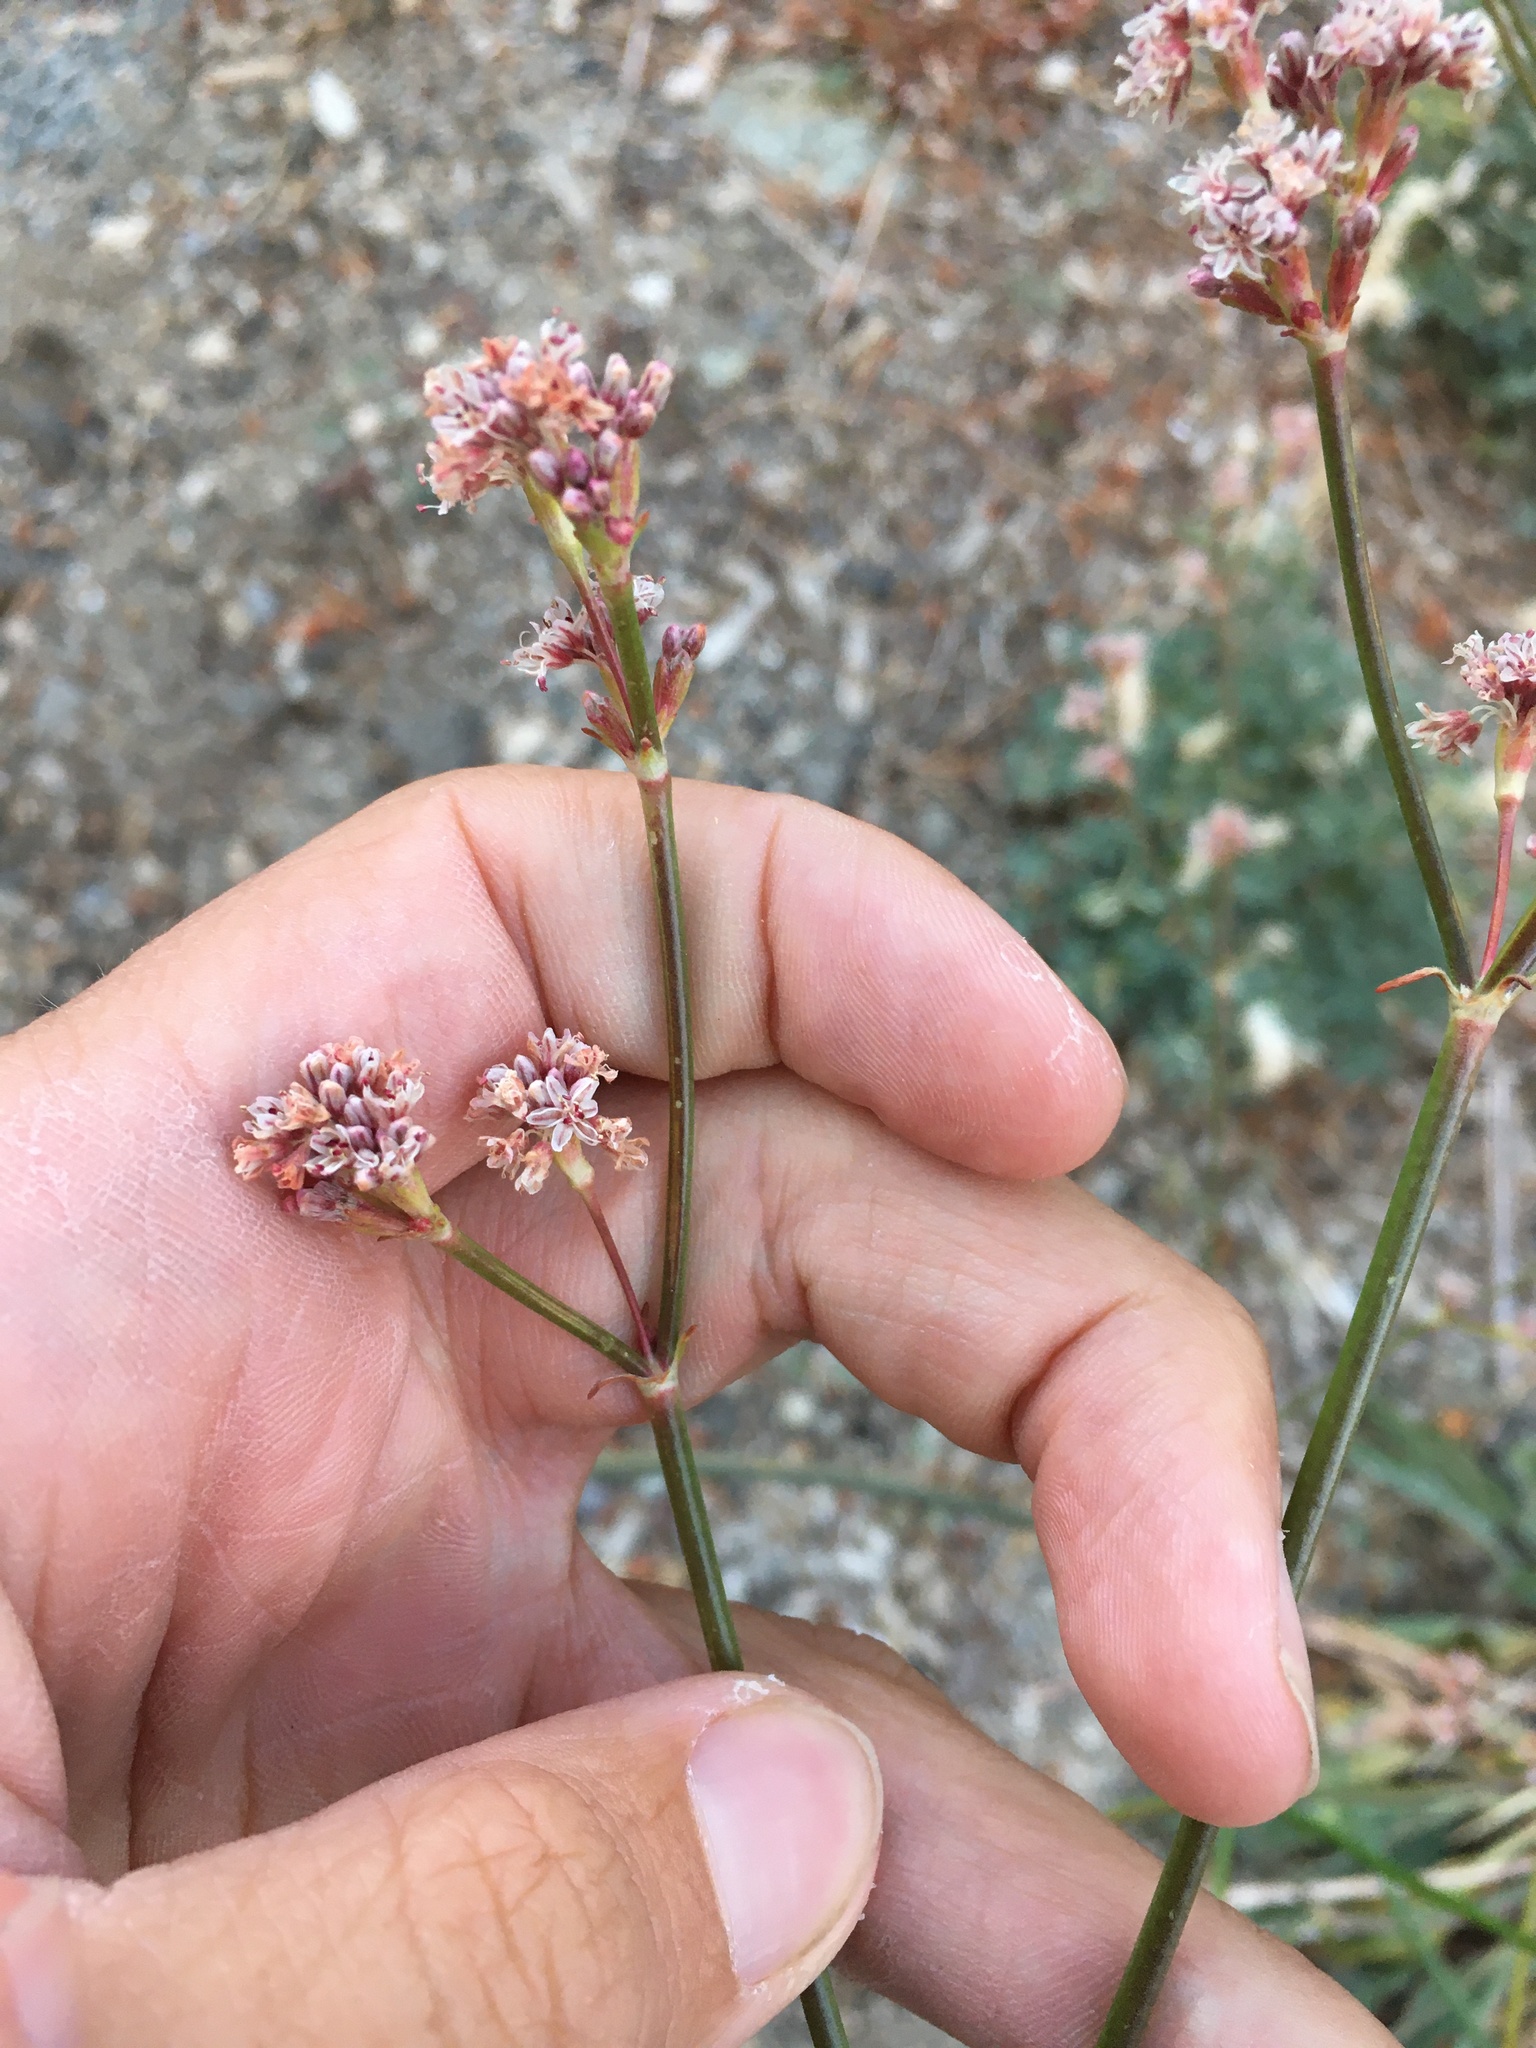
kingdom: Plantae
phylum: Tracheophyta
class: Magnoliopsida
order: Caryophyllales
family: Polygonaceae
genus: Eriogonum
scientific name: Eriogonum elatum
